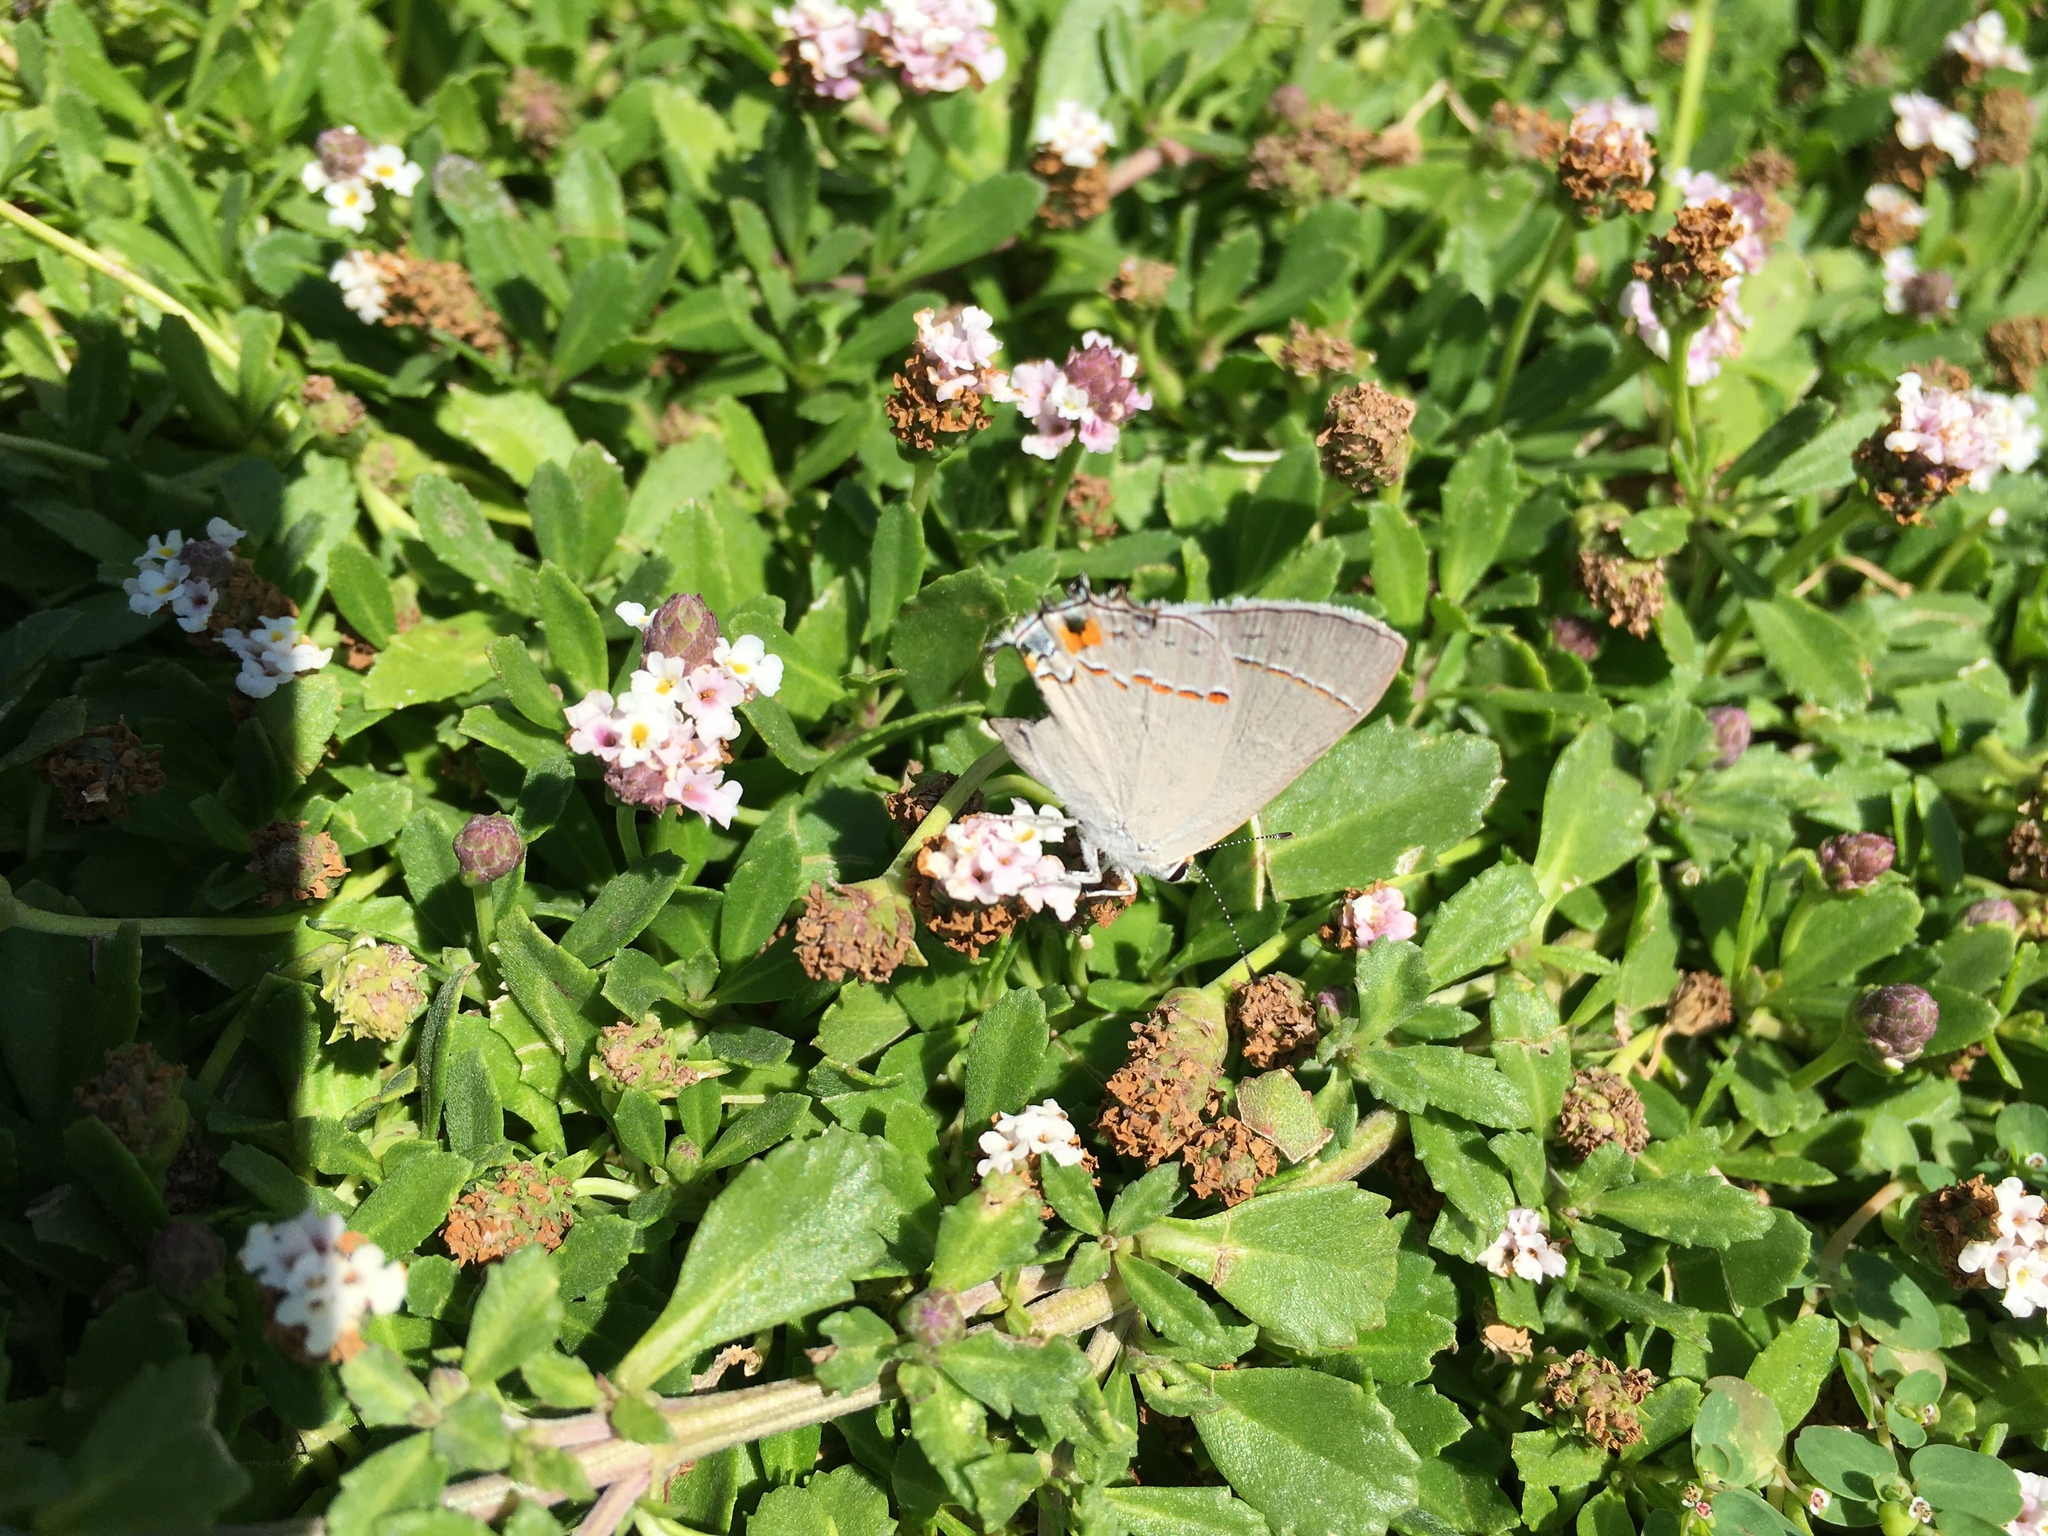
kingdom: Animalia
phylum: Arthropoda
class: Insecta
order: Lepidoptera
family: Lycaenidae
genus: Strymon
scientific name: Strymon melinus
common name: Gray hairstreak
